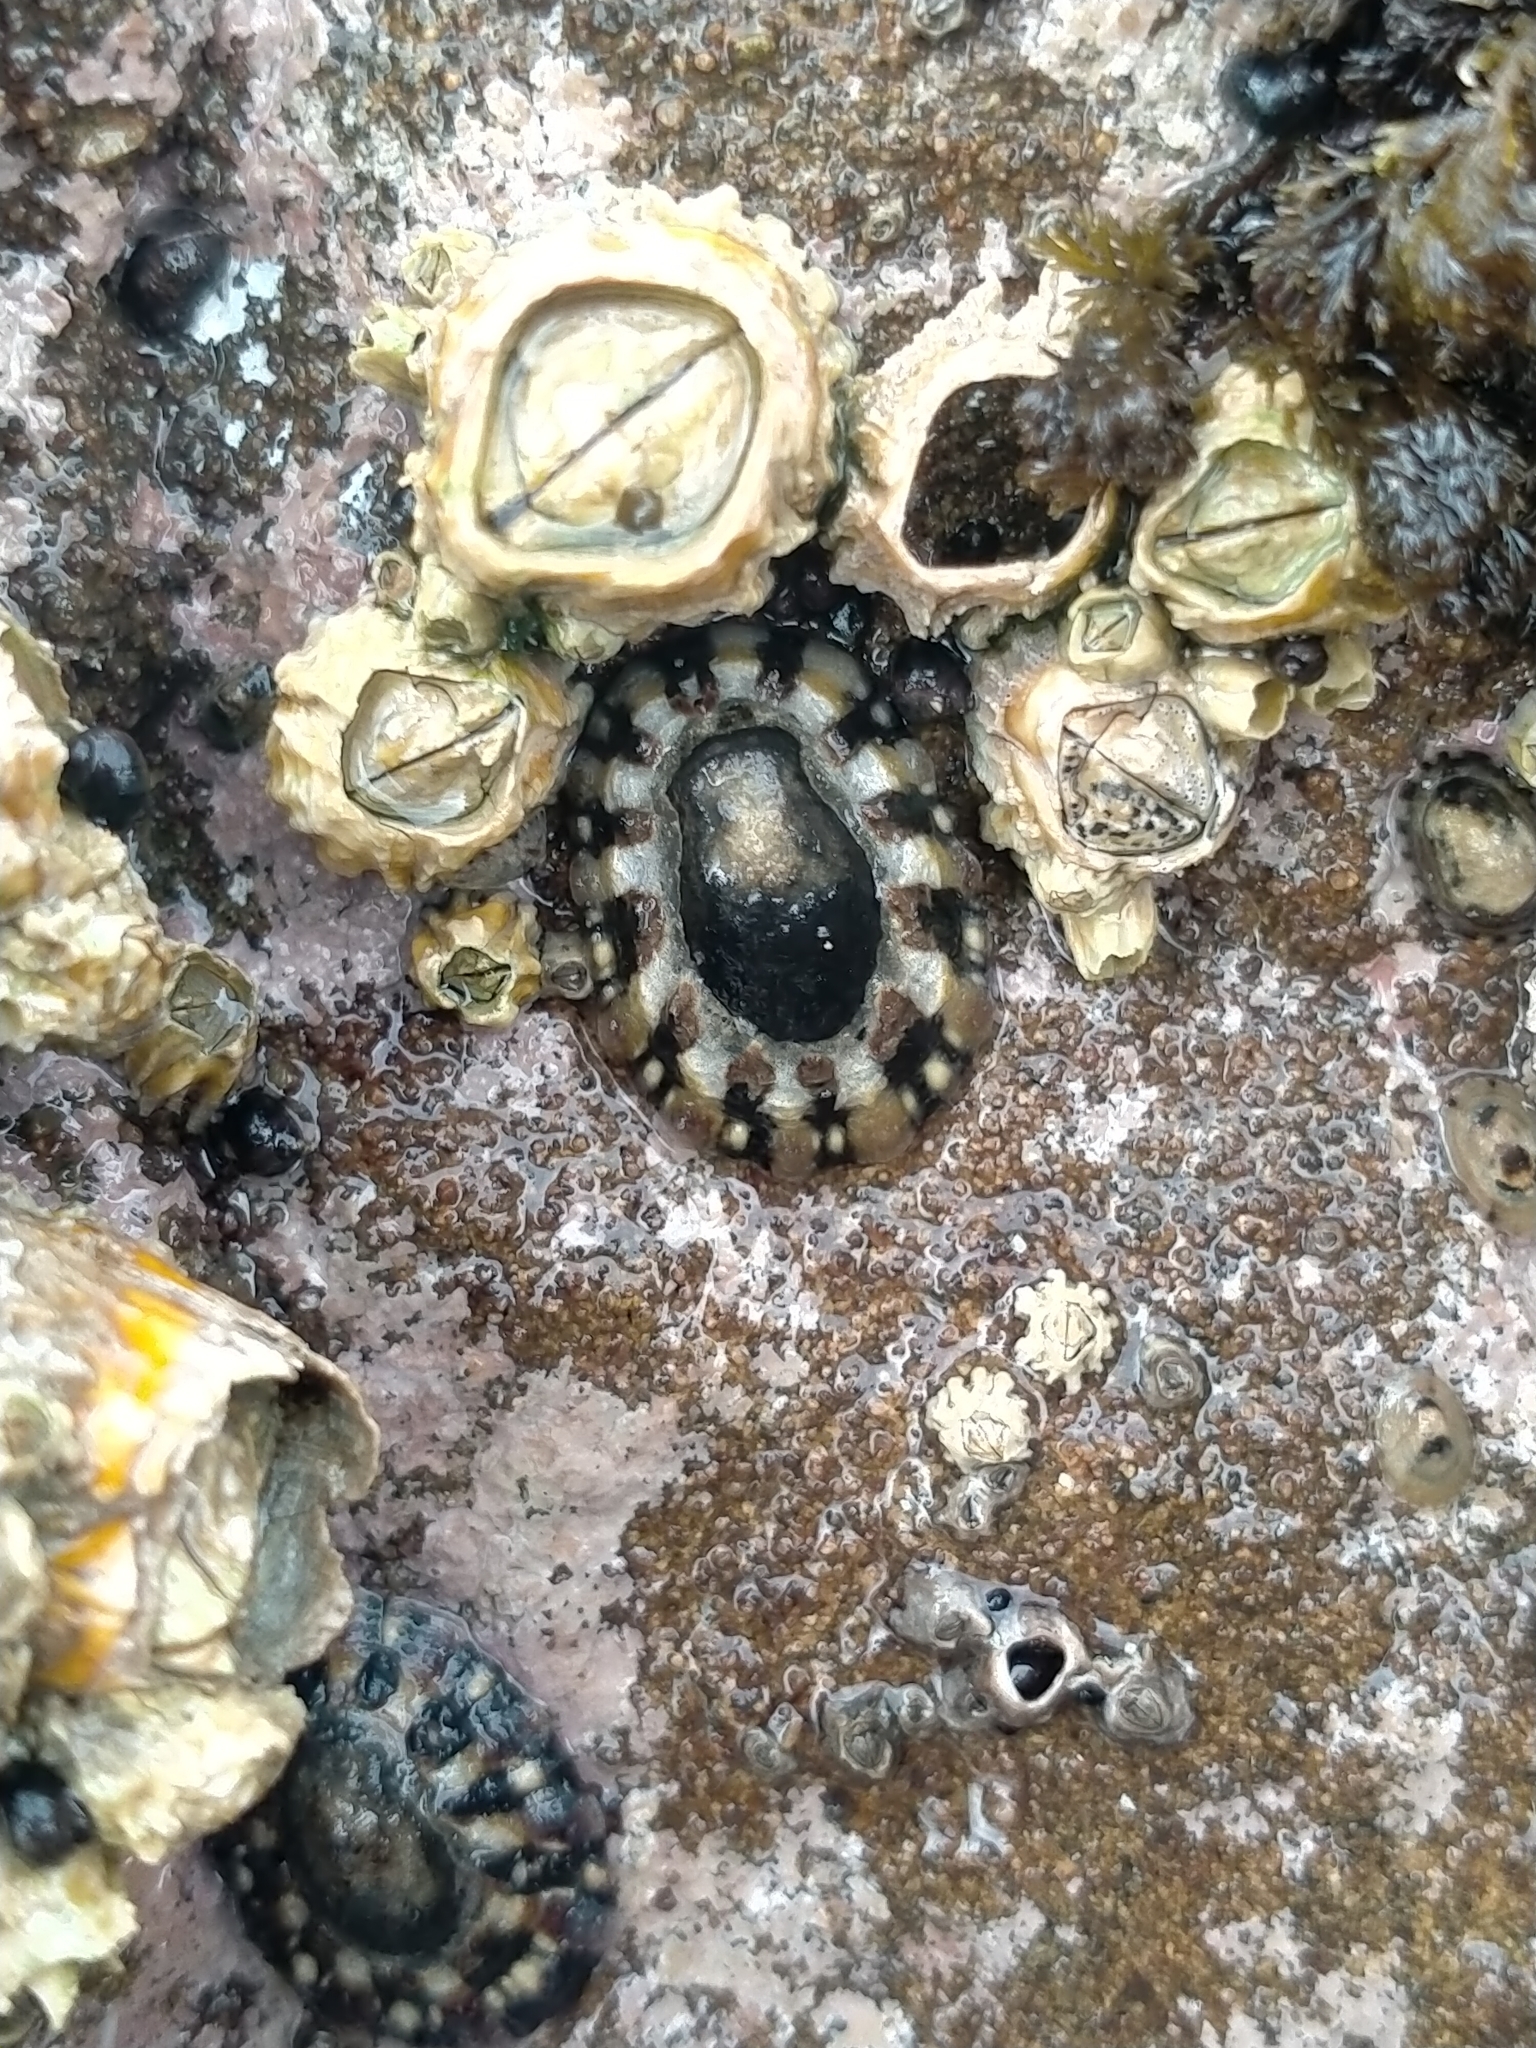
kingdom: Animalia
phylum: Mollusca
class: Gastropoda
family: Nacellidae
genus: Cellana
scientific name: Cellana ornata
